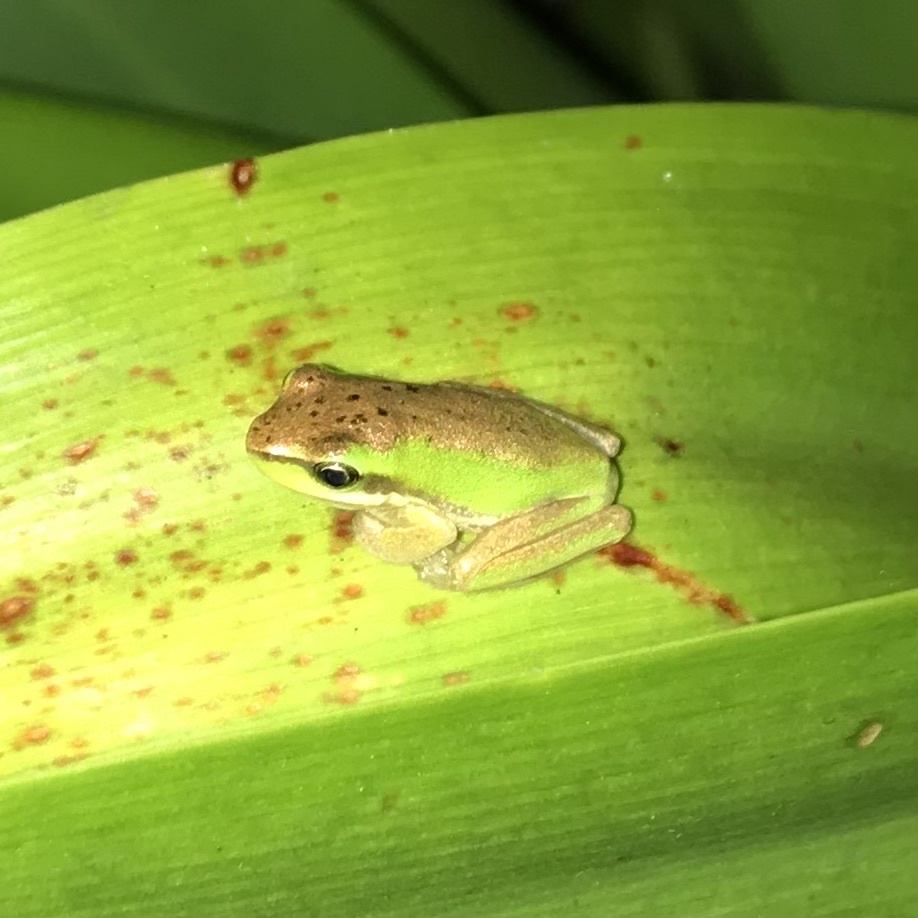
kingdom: Animalia
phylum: Chordata
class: Amphibia
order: Anura
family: Pelodryadidae
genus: Litoria
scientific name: Litoria fallax
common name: Eastern dwarf treefrog
